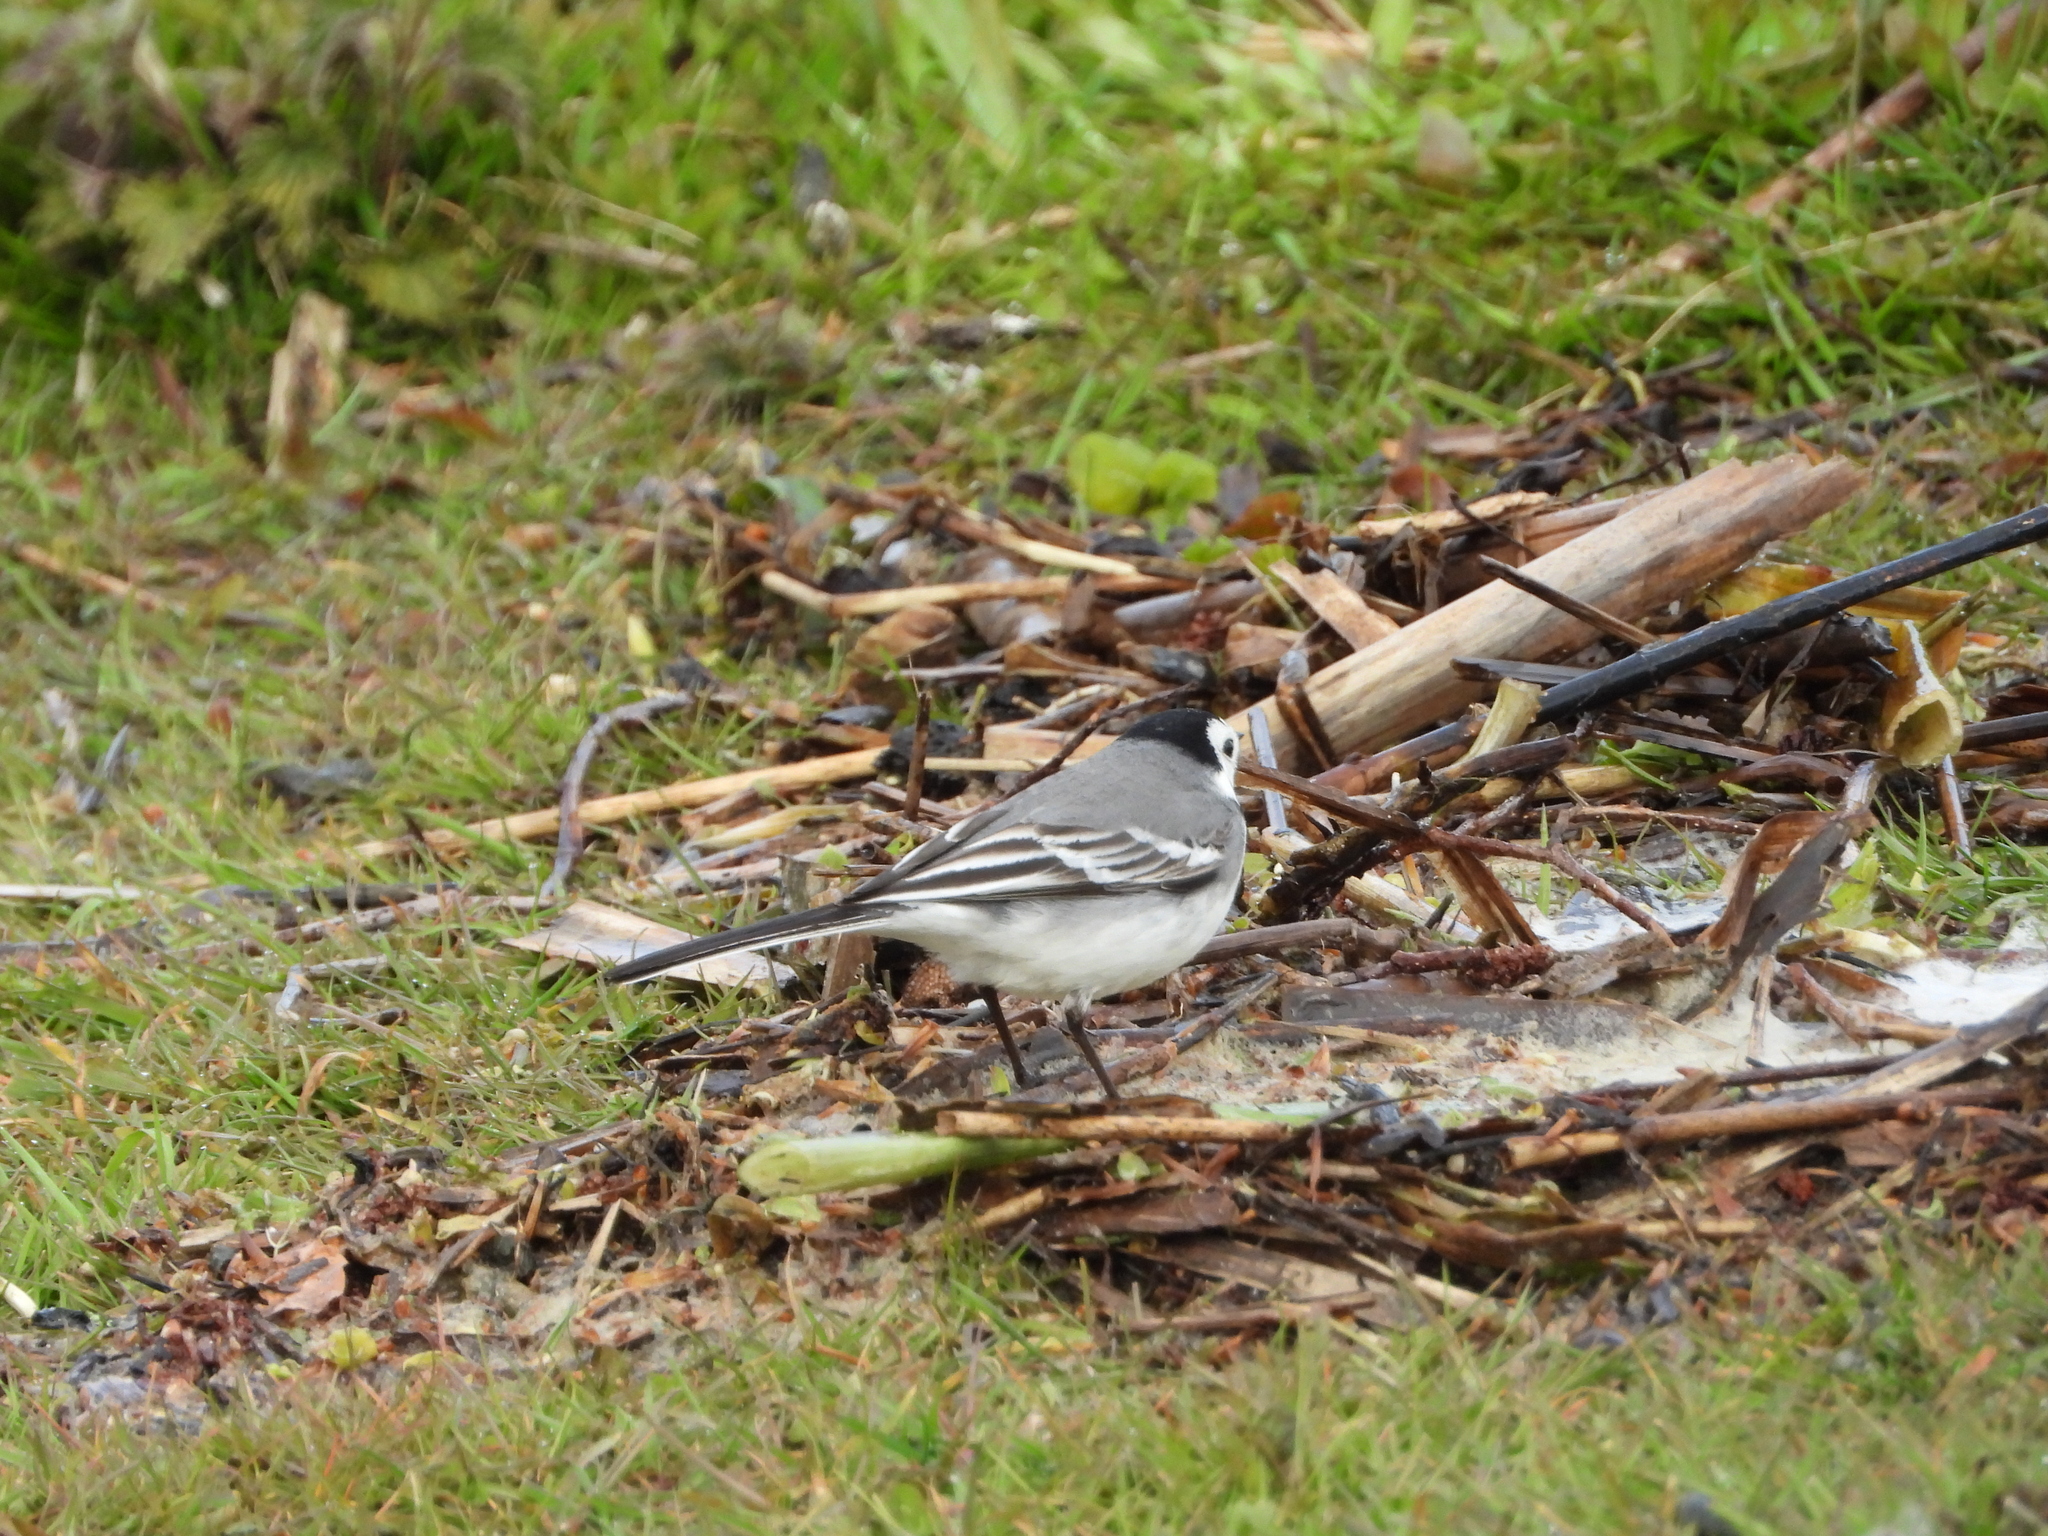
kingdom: Animalia
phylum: Chordata
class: Aves
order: Passeriformes
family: Motacillidae
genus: Motacilla
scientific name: Motacilla alba
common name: White wagtail
